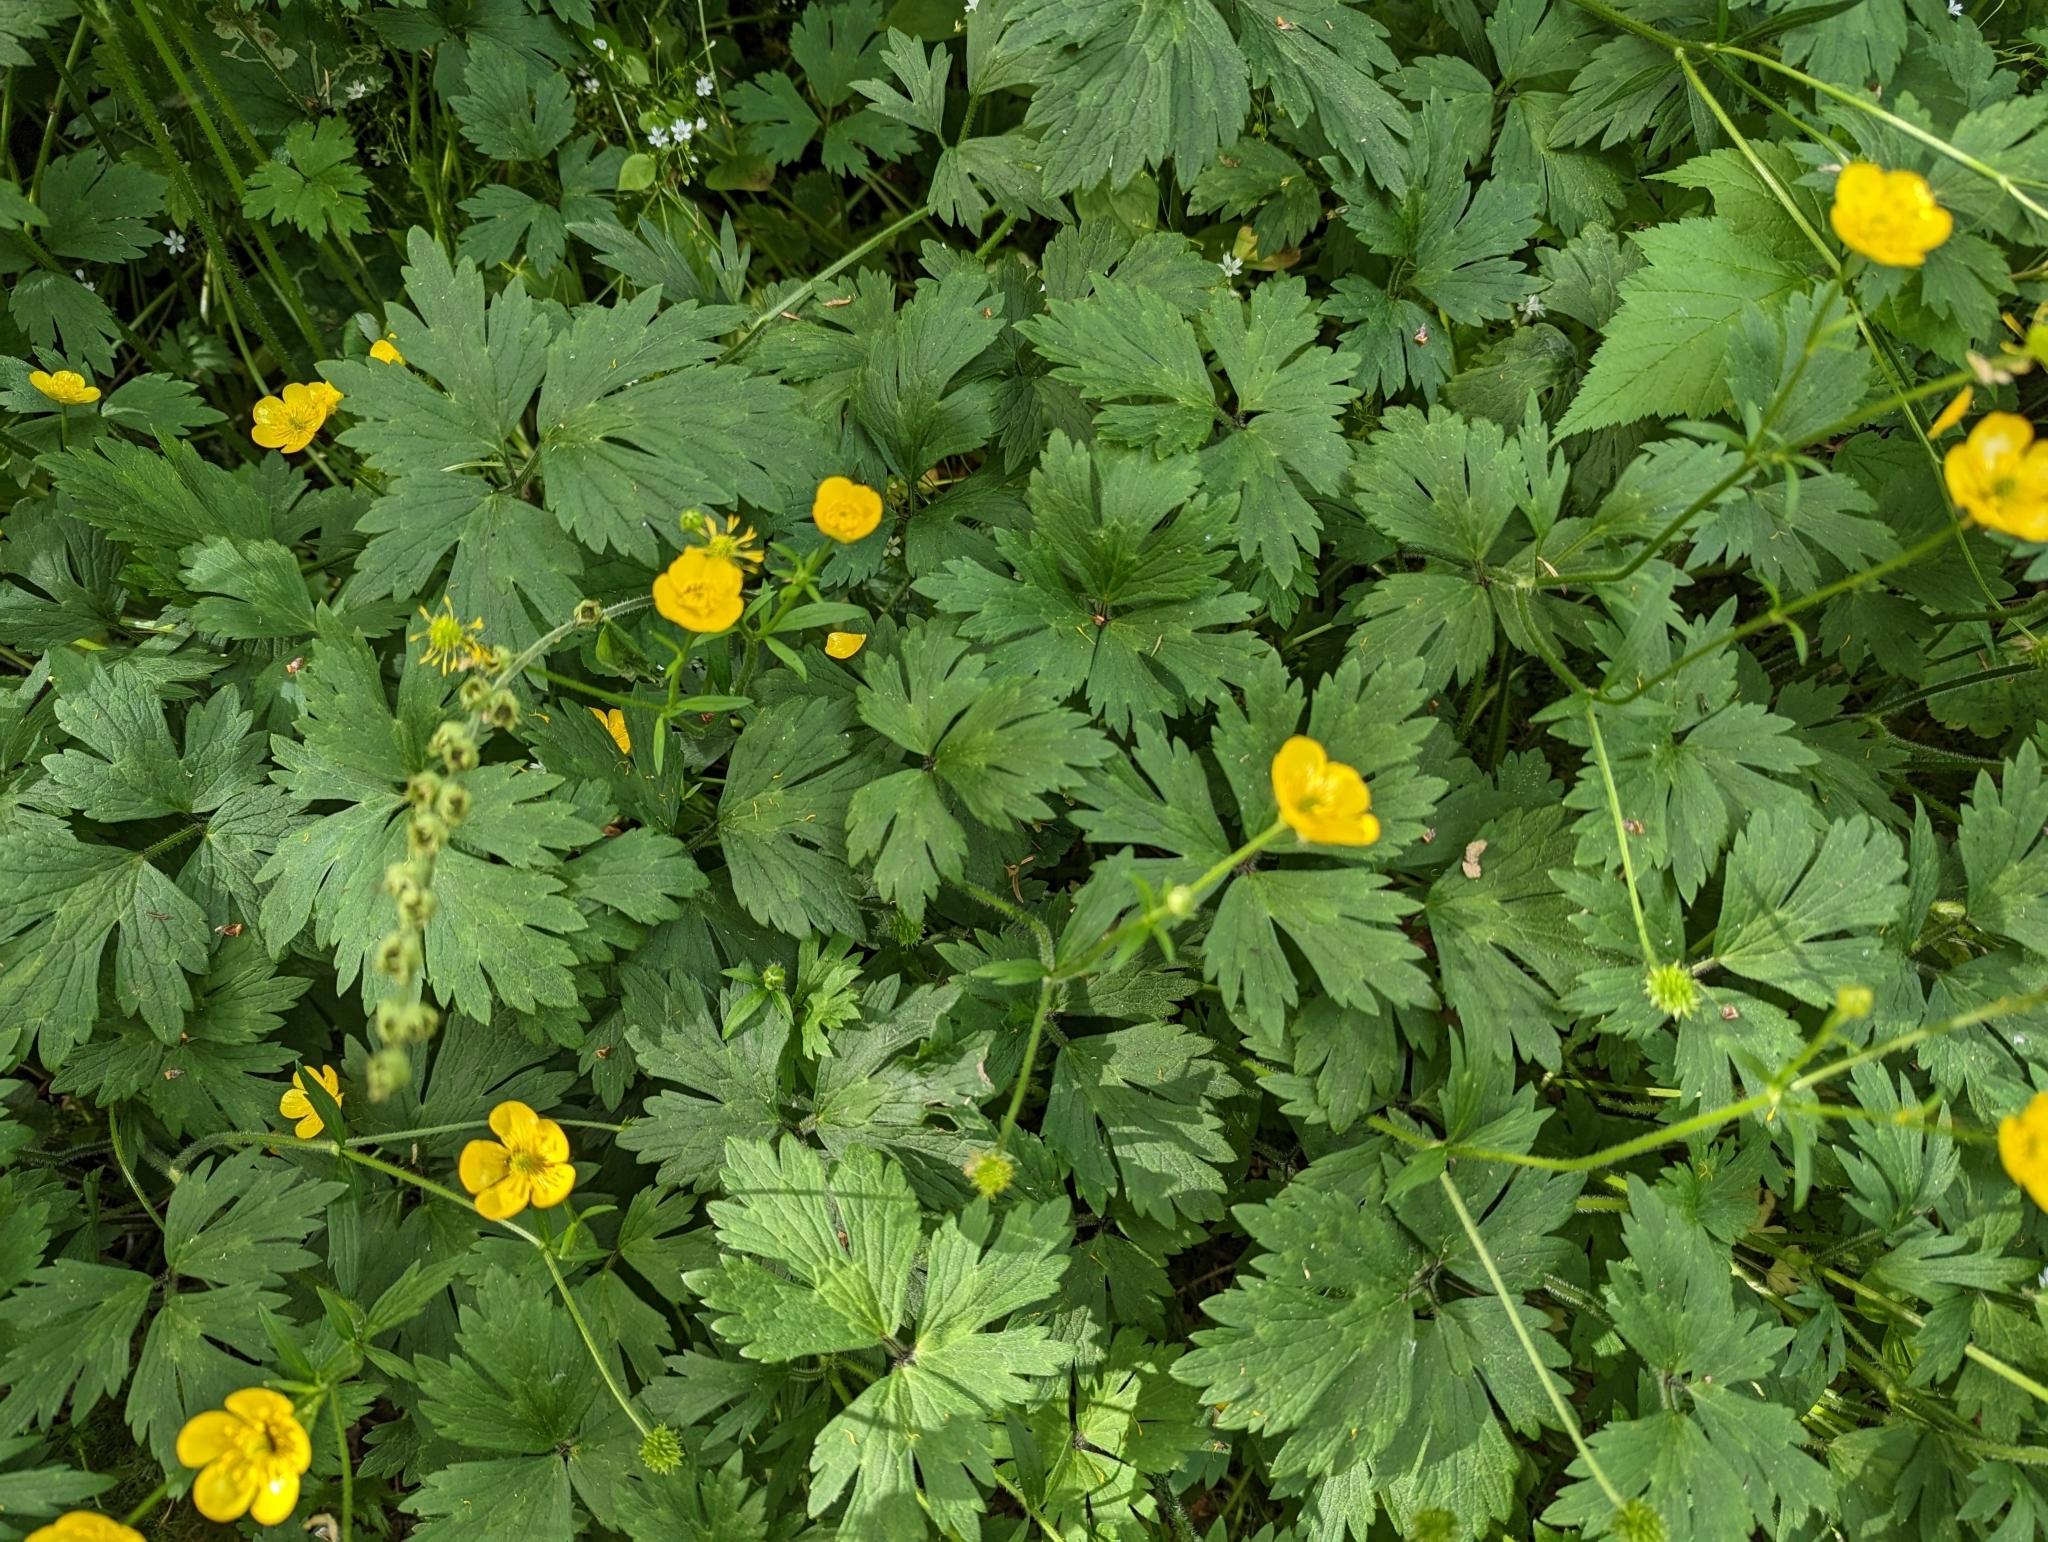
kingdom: Plantae
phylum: Tracheophyta
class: Magnoliopsida
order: Ranunculales
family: Ranunculaceae
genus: Ranunculus
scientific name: Ranunculus repens
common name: Creeping buttercup
